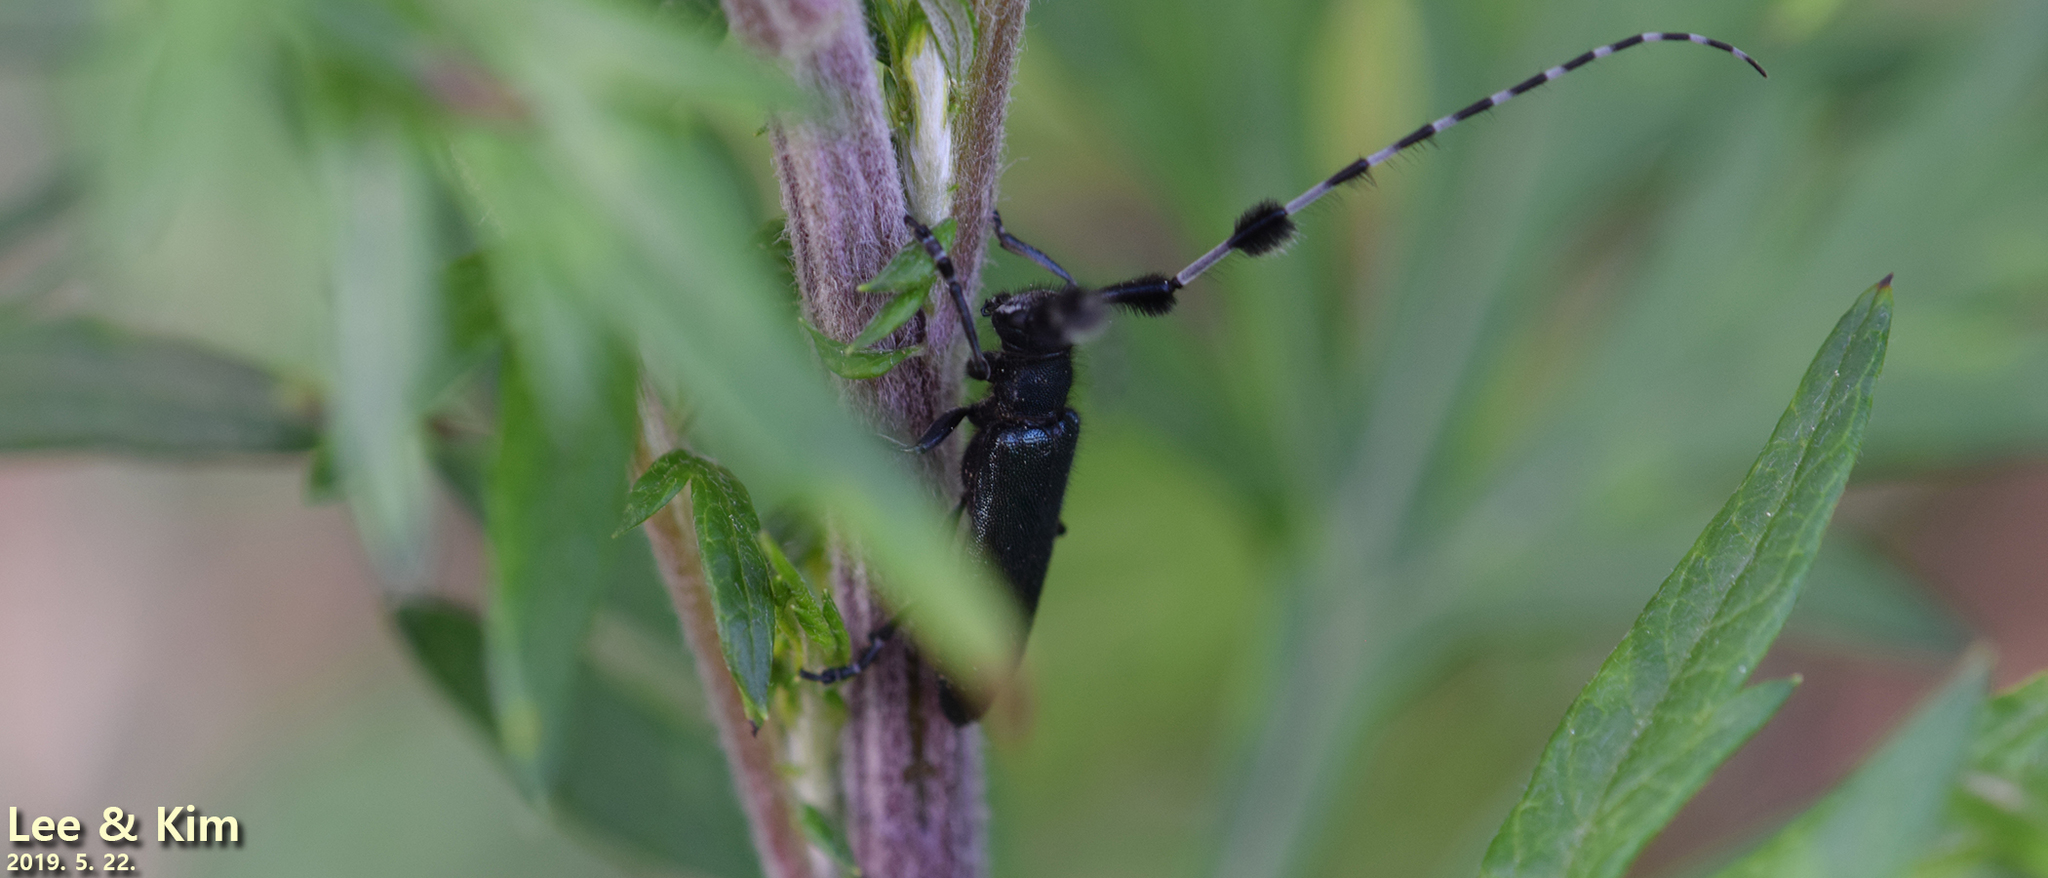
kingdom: Animalia
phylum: Arthropoda
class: Insecta
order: Coleoptera
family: Cerambycidae
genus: Agapanthia
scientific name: Agapanthia amurensis
